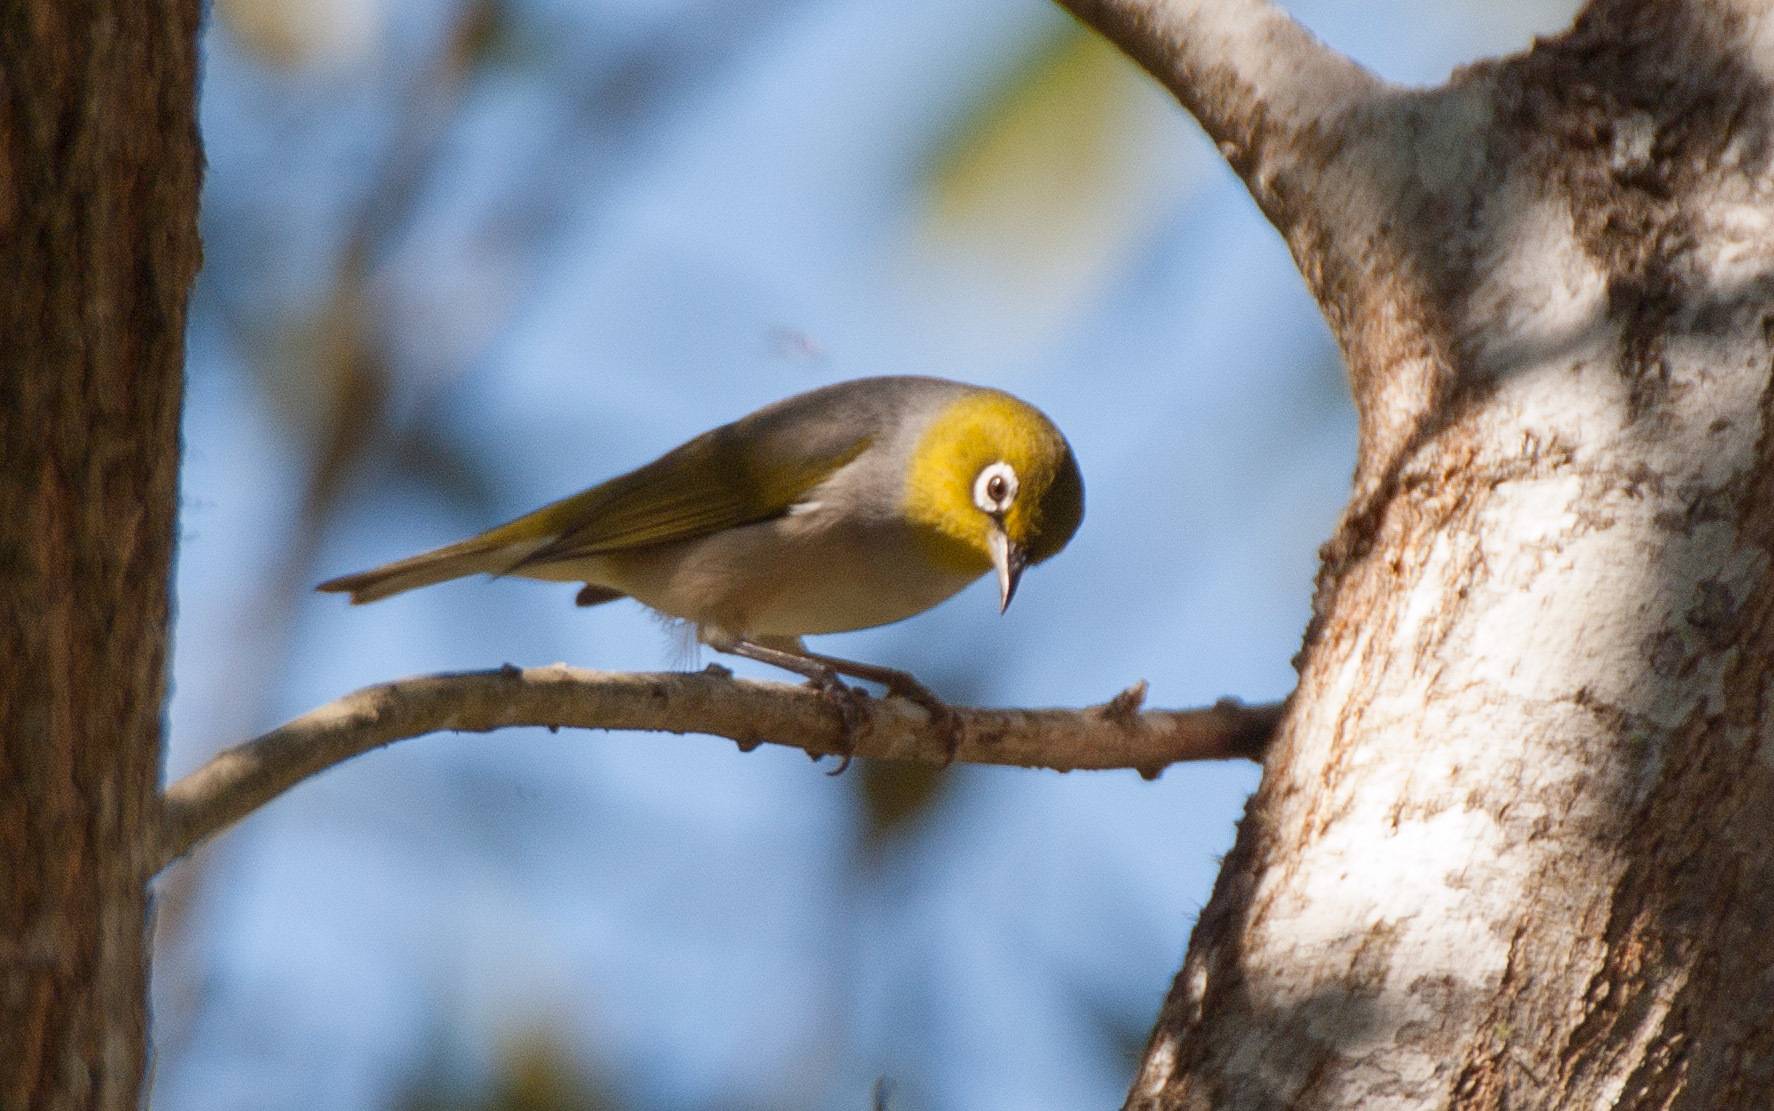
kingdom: Animalia
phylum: Chordata
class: Aves
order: Passeriformes
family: Zosteropidae
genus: Zosterops
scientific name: Zosterops lateralis
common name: Silvereye
